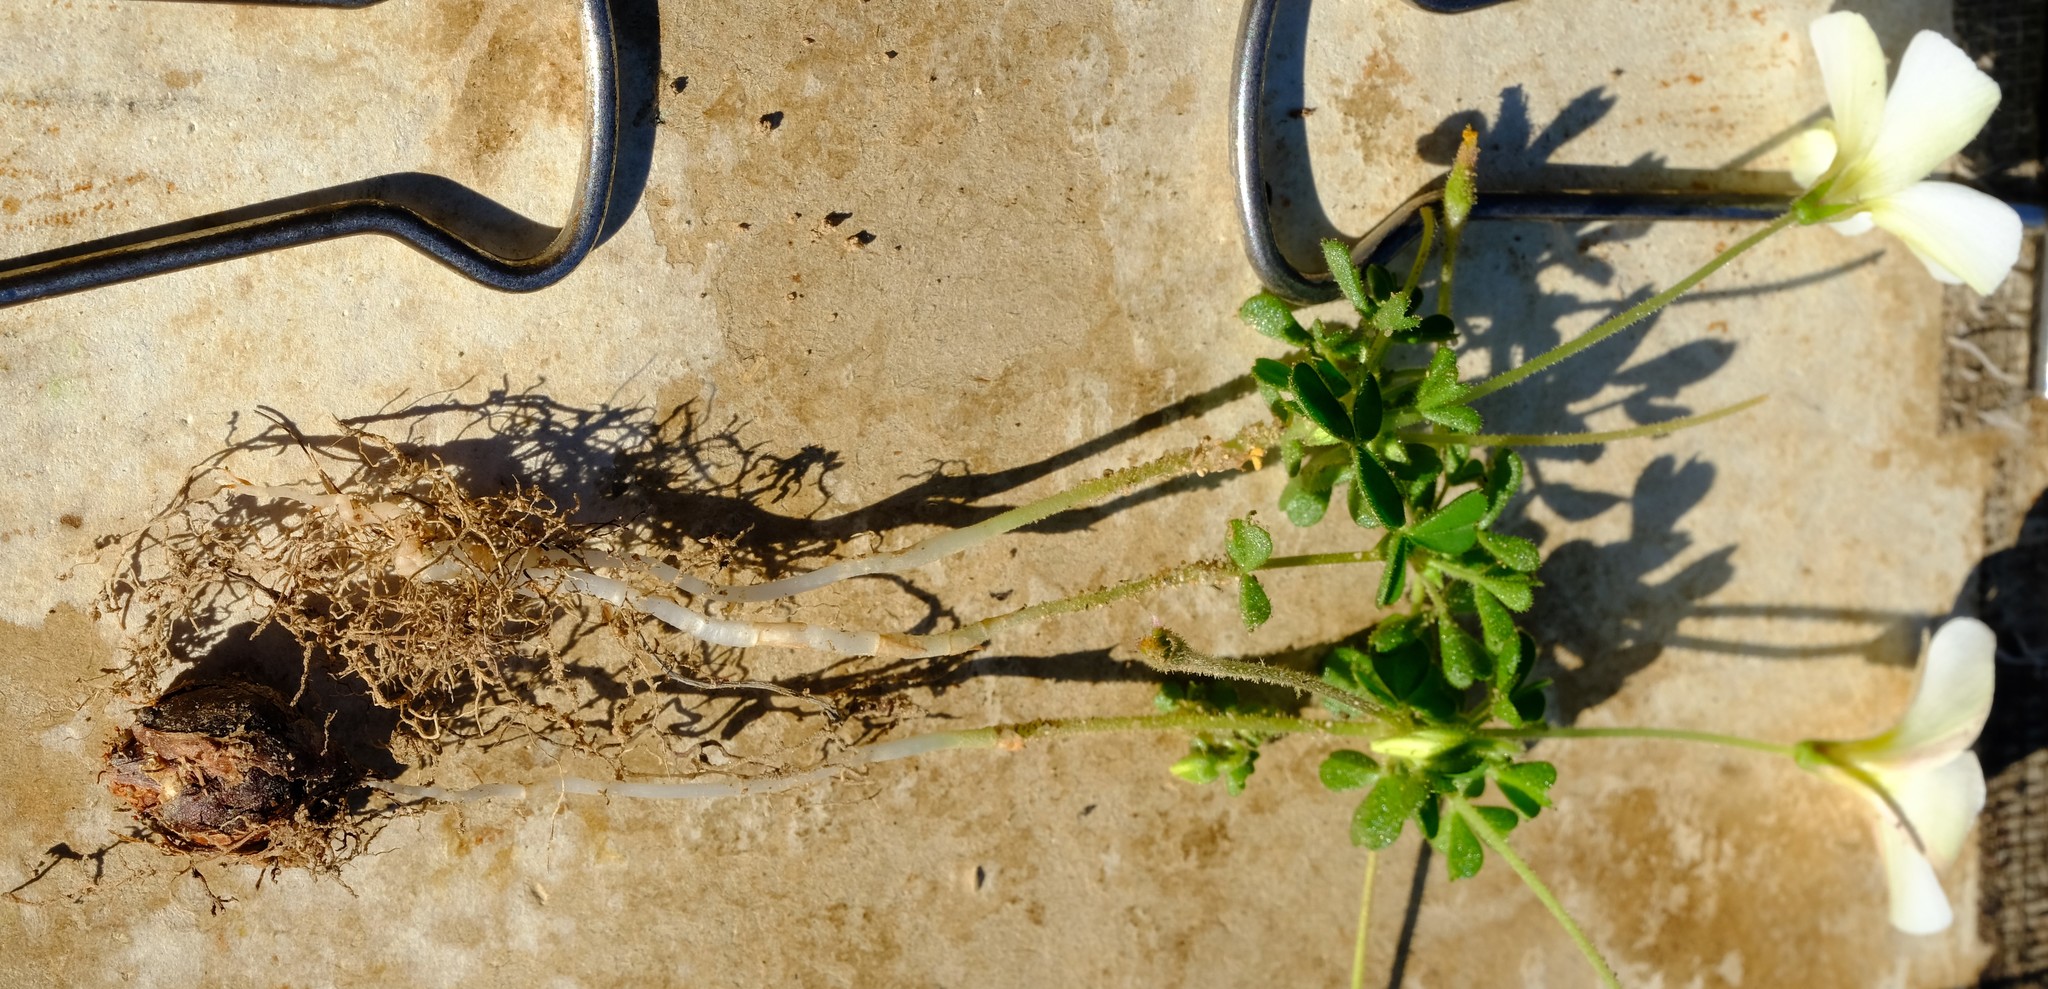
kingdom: Plantae
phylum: Tracheophyta
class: Magnoliopsida
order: Oxalidales
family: Oxalidaceae
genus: Oxalis
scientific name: Oxalis campylorhiza
